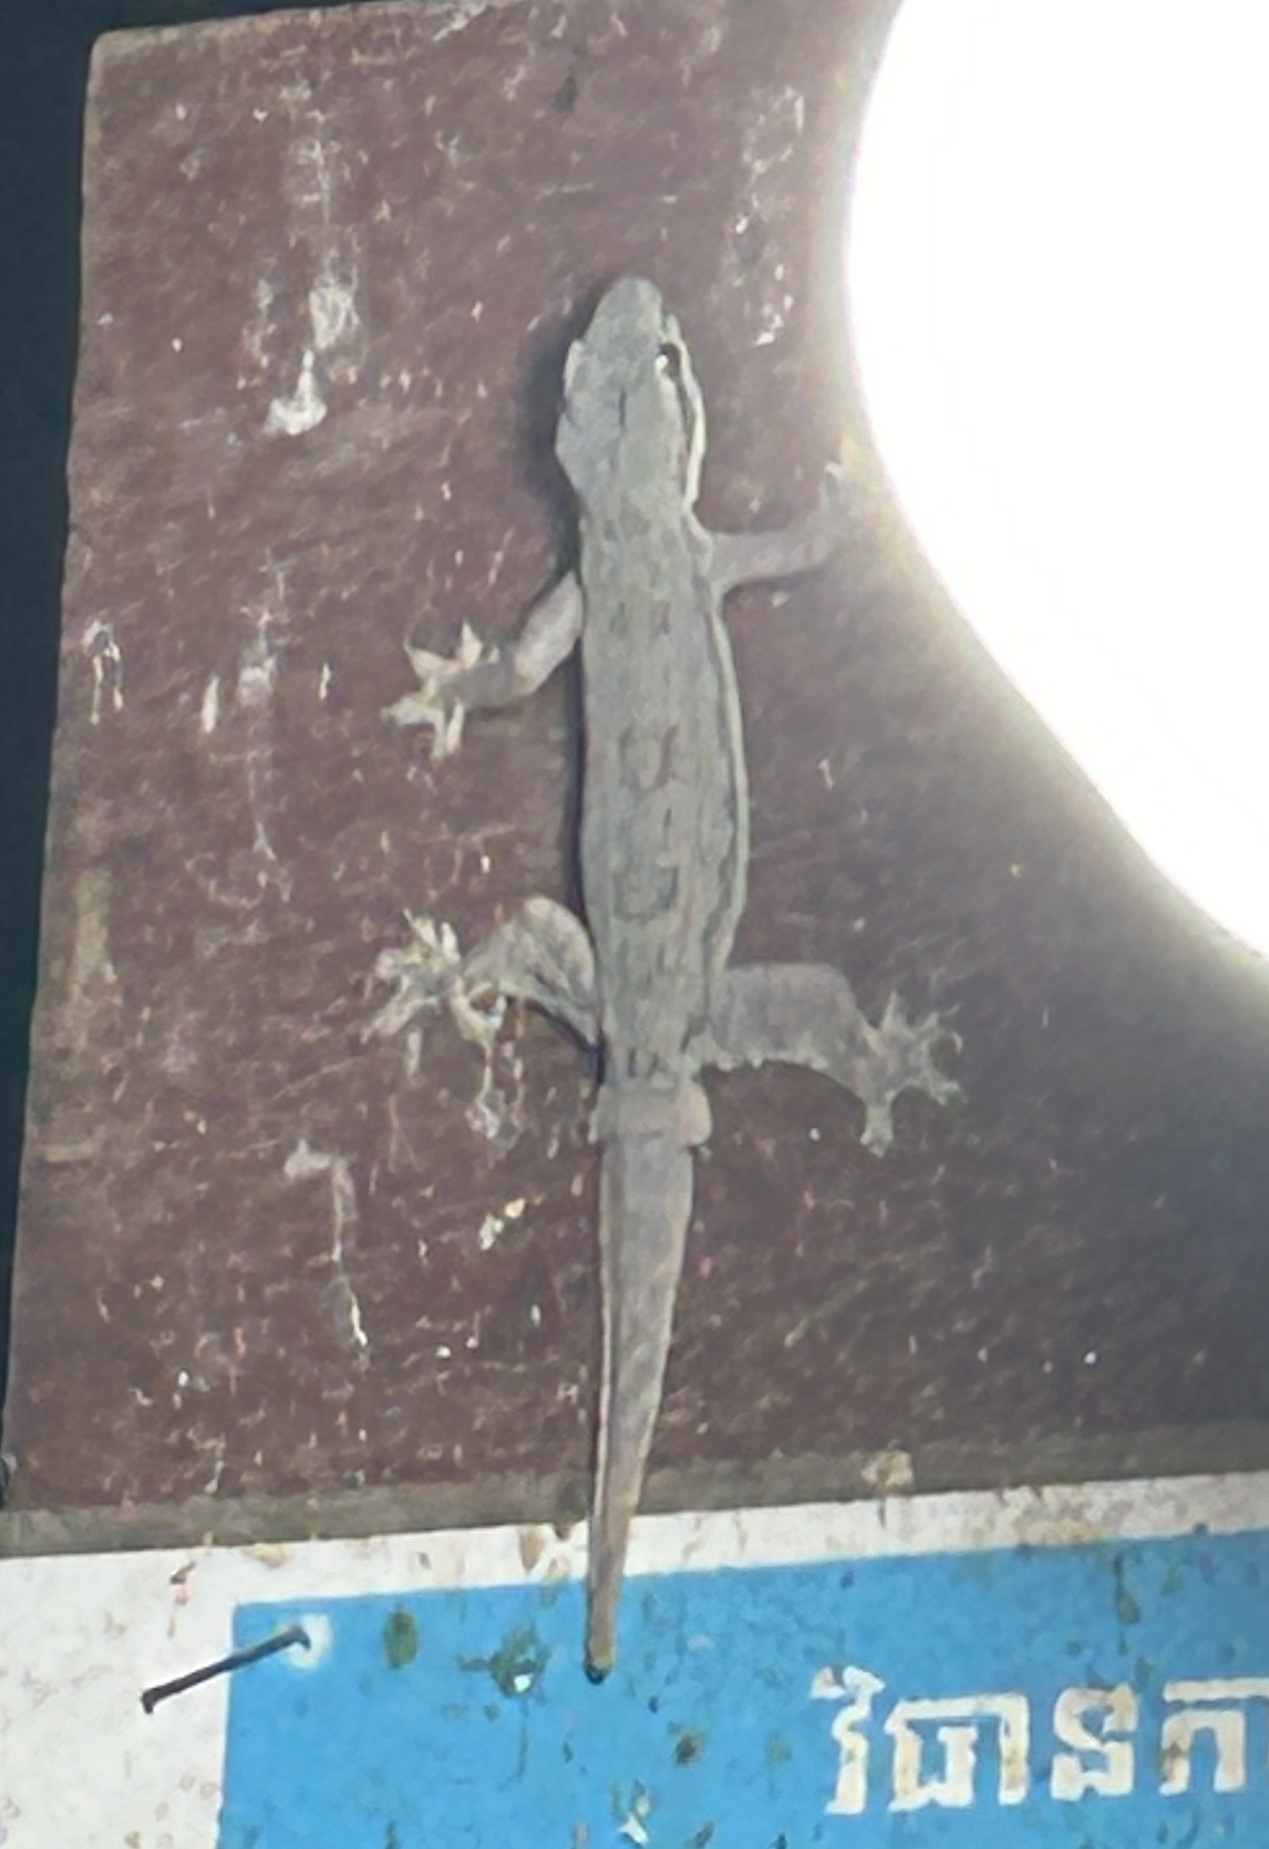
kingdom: Animalia
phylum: Chordata
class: Squamata
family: Gekkonidae
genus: Hemidactylus
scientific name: Hemidactylus platyurus
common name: Flat-tailed house gecko
